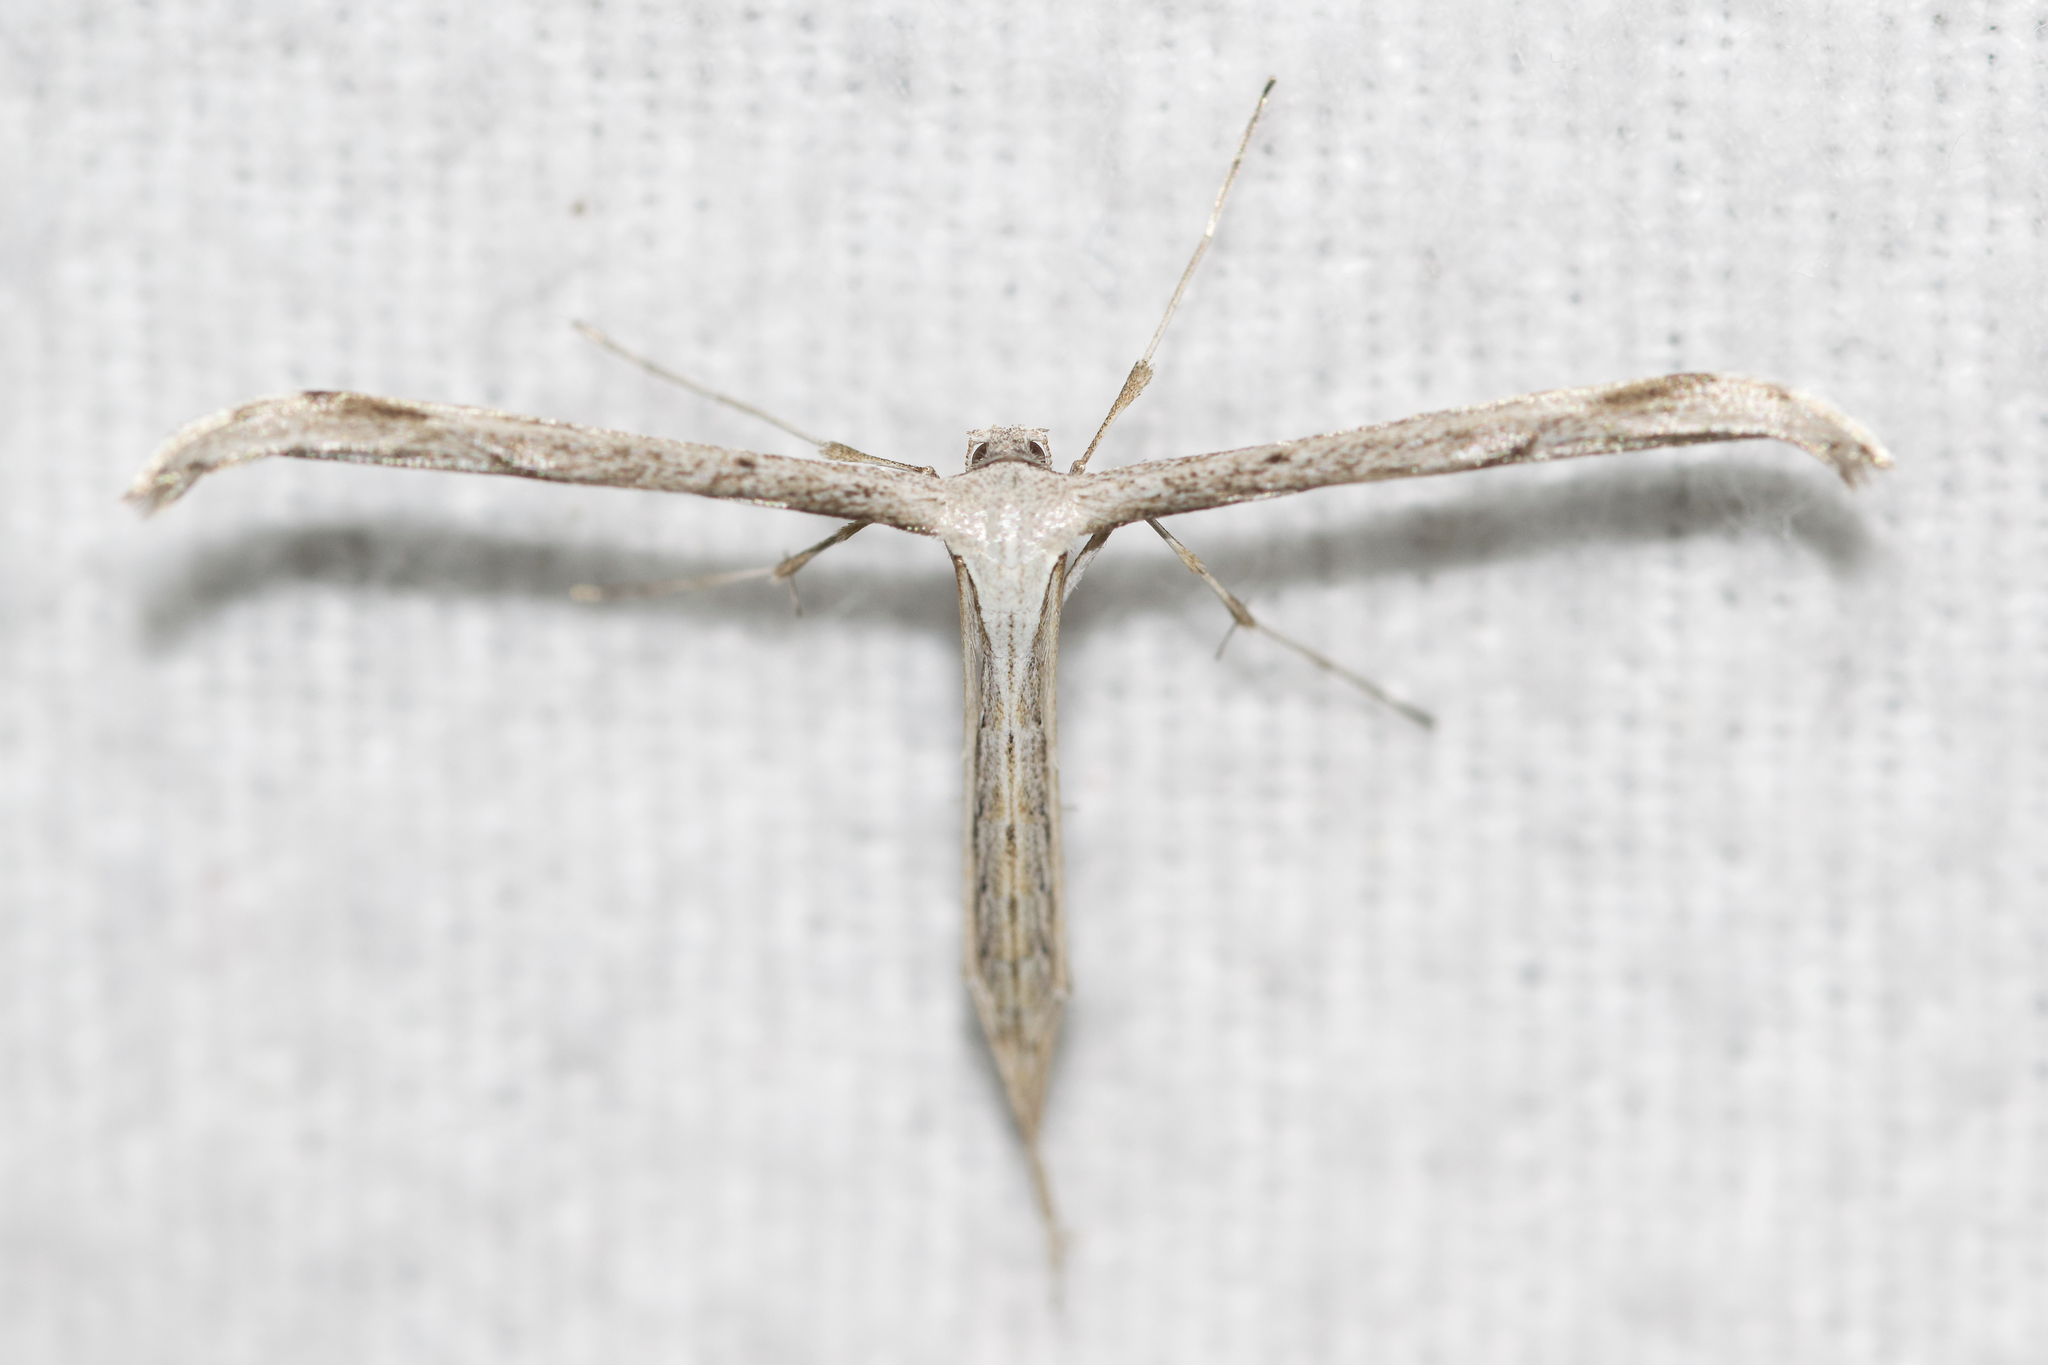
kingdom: Animalia
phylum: Arthropoda
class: Insecta
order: Lepidoptera
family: Pterophoridae
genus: Emmelina
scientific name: Emmelina monodactyla
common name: Common plume
